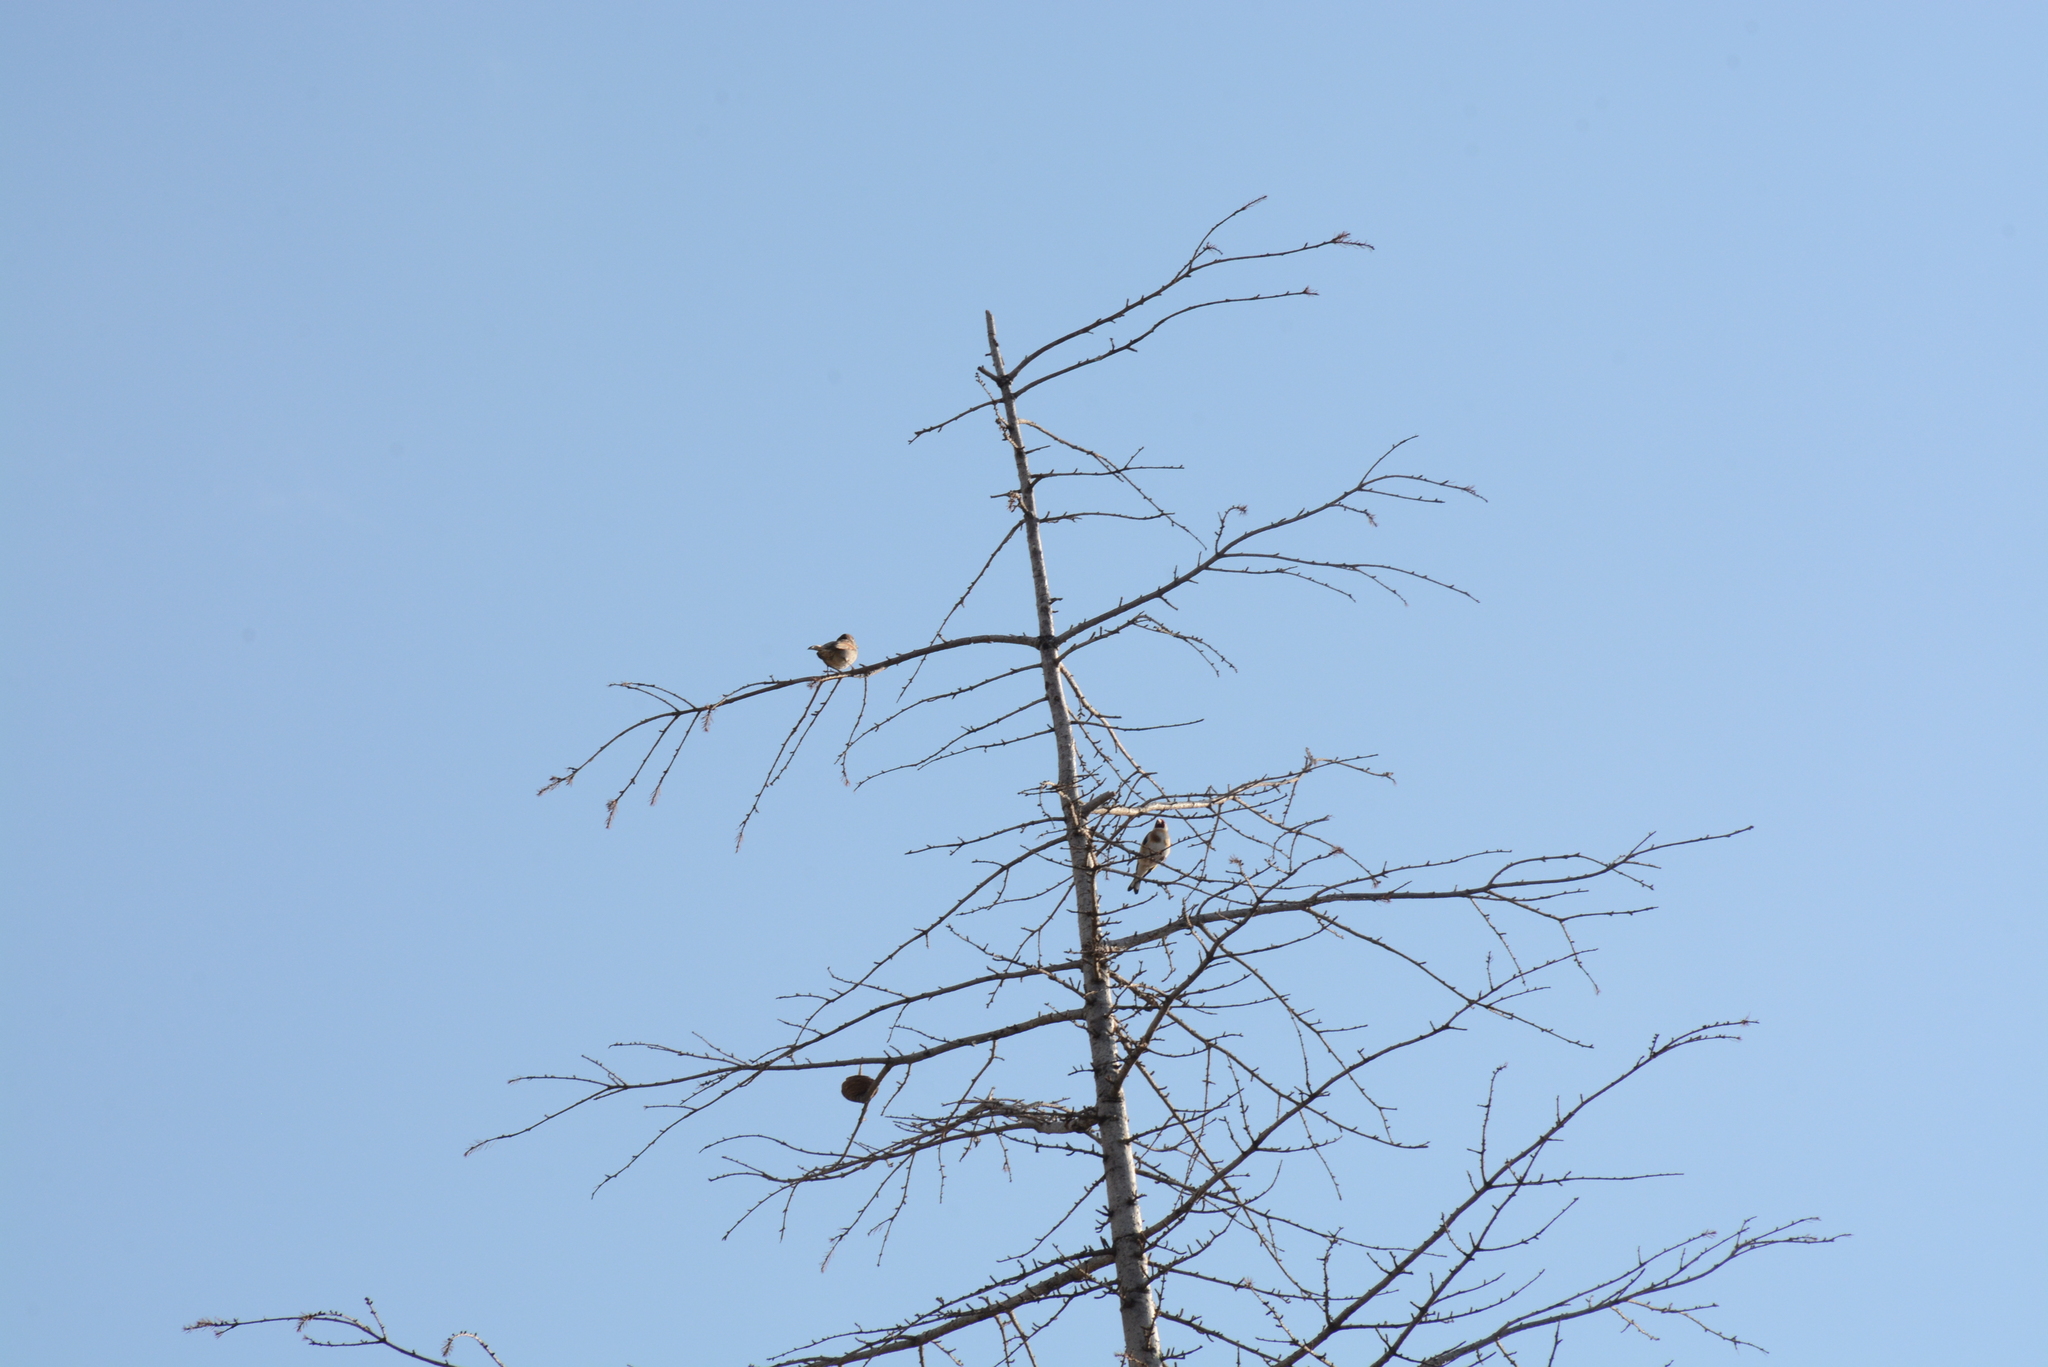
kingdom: Animalia
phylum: Chordata
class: Aves
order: Passeriformes
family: Passeridae
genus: Passer
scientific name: Passer domesticus
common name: House sparrow
